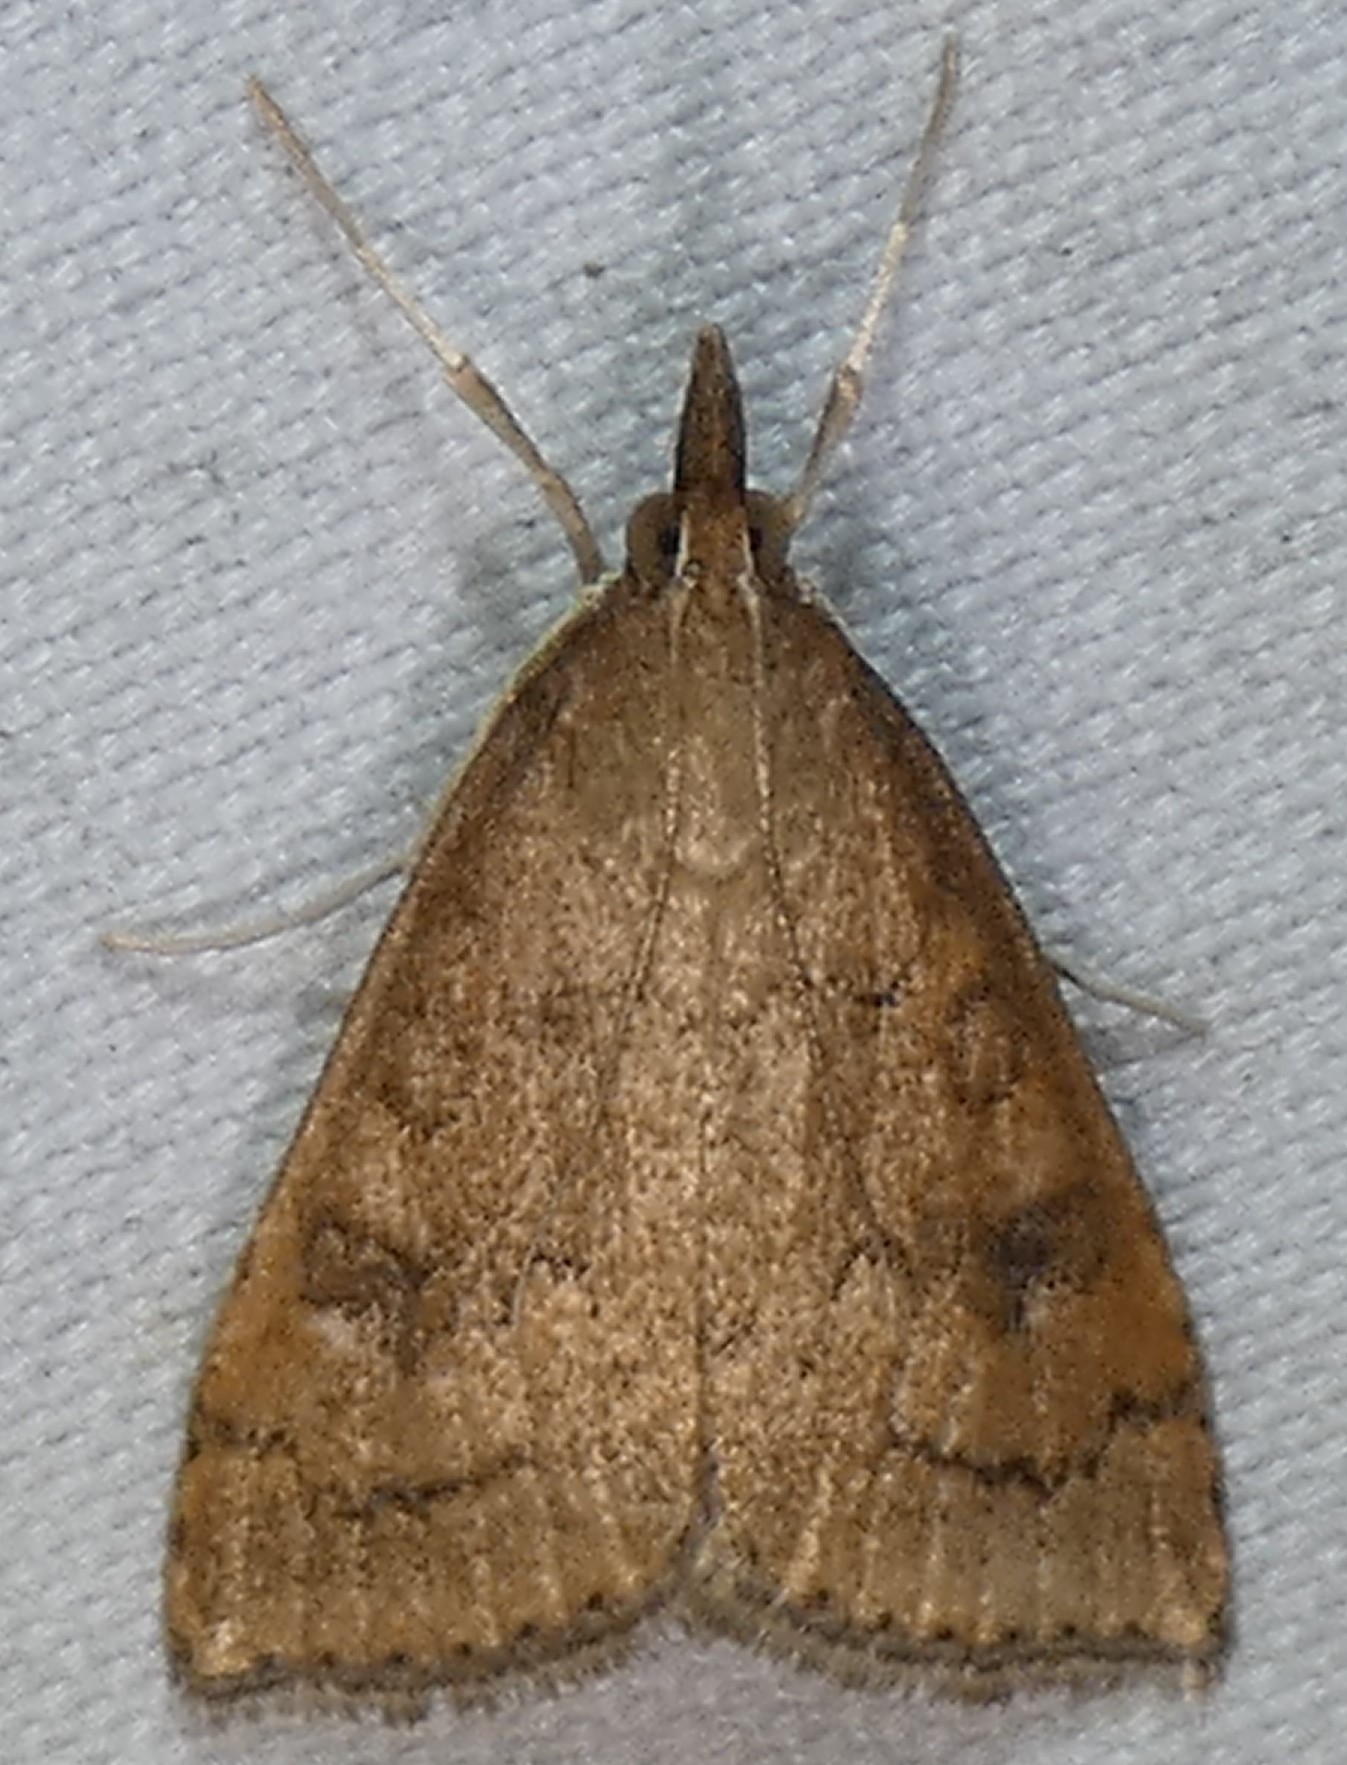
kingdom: Animalia
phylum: Arthropoda
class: Insecta
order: Lepidoptera
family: Crambidae
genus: Udea
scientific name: Udea rubigalis
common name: Celery leaftier moth
